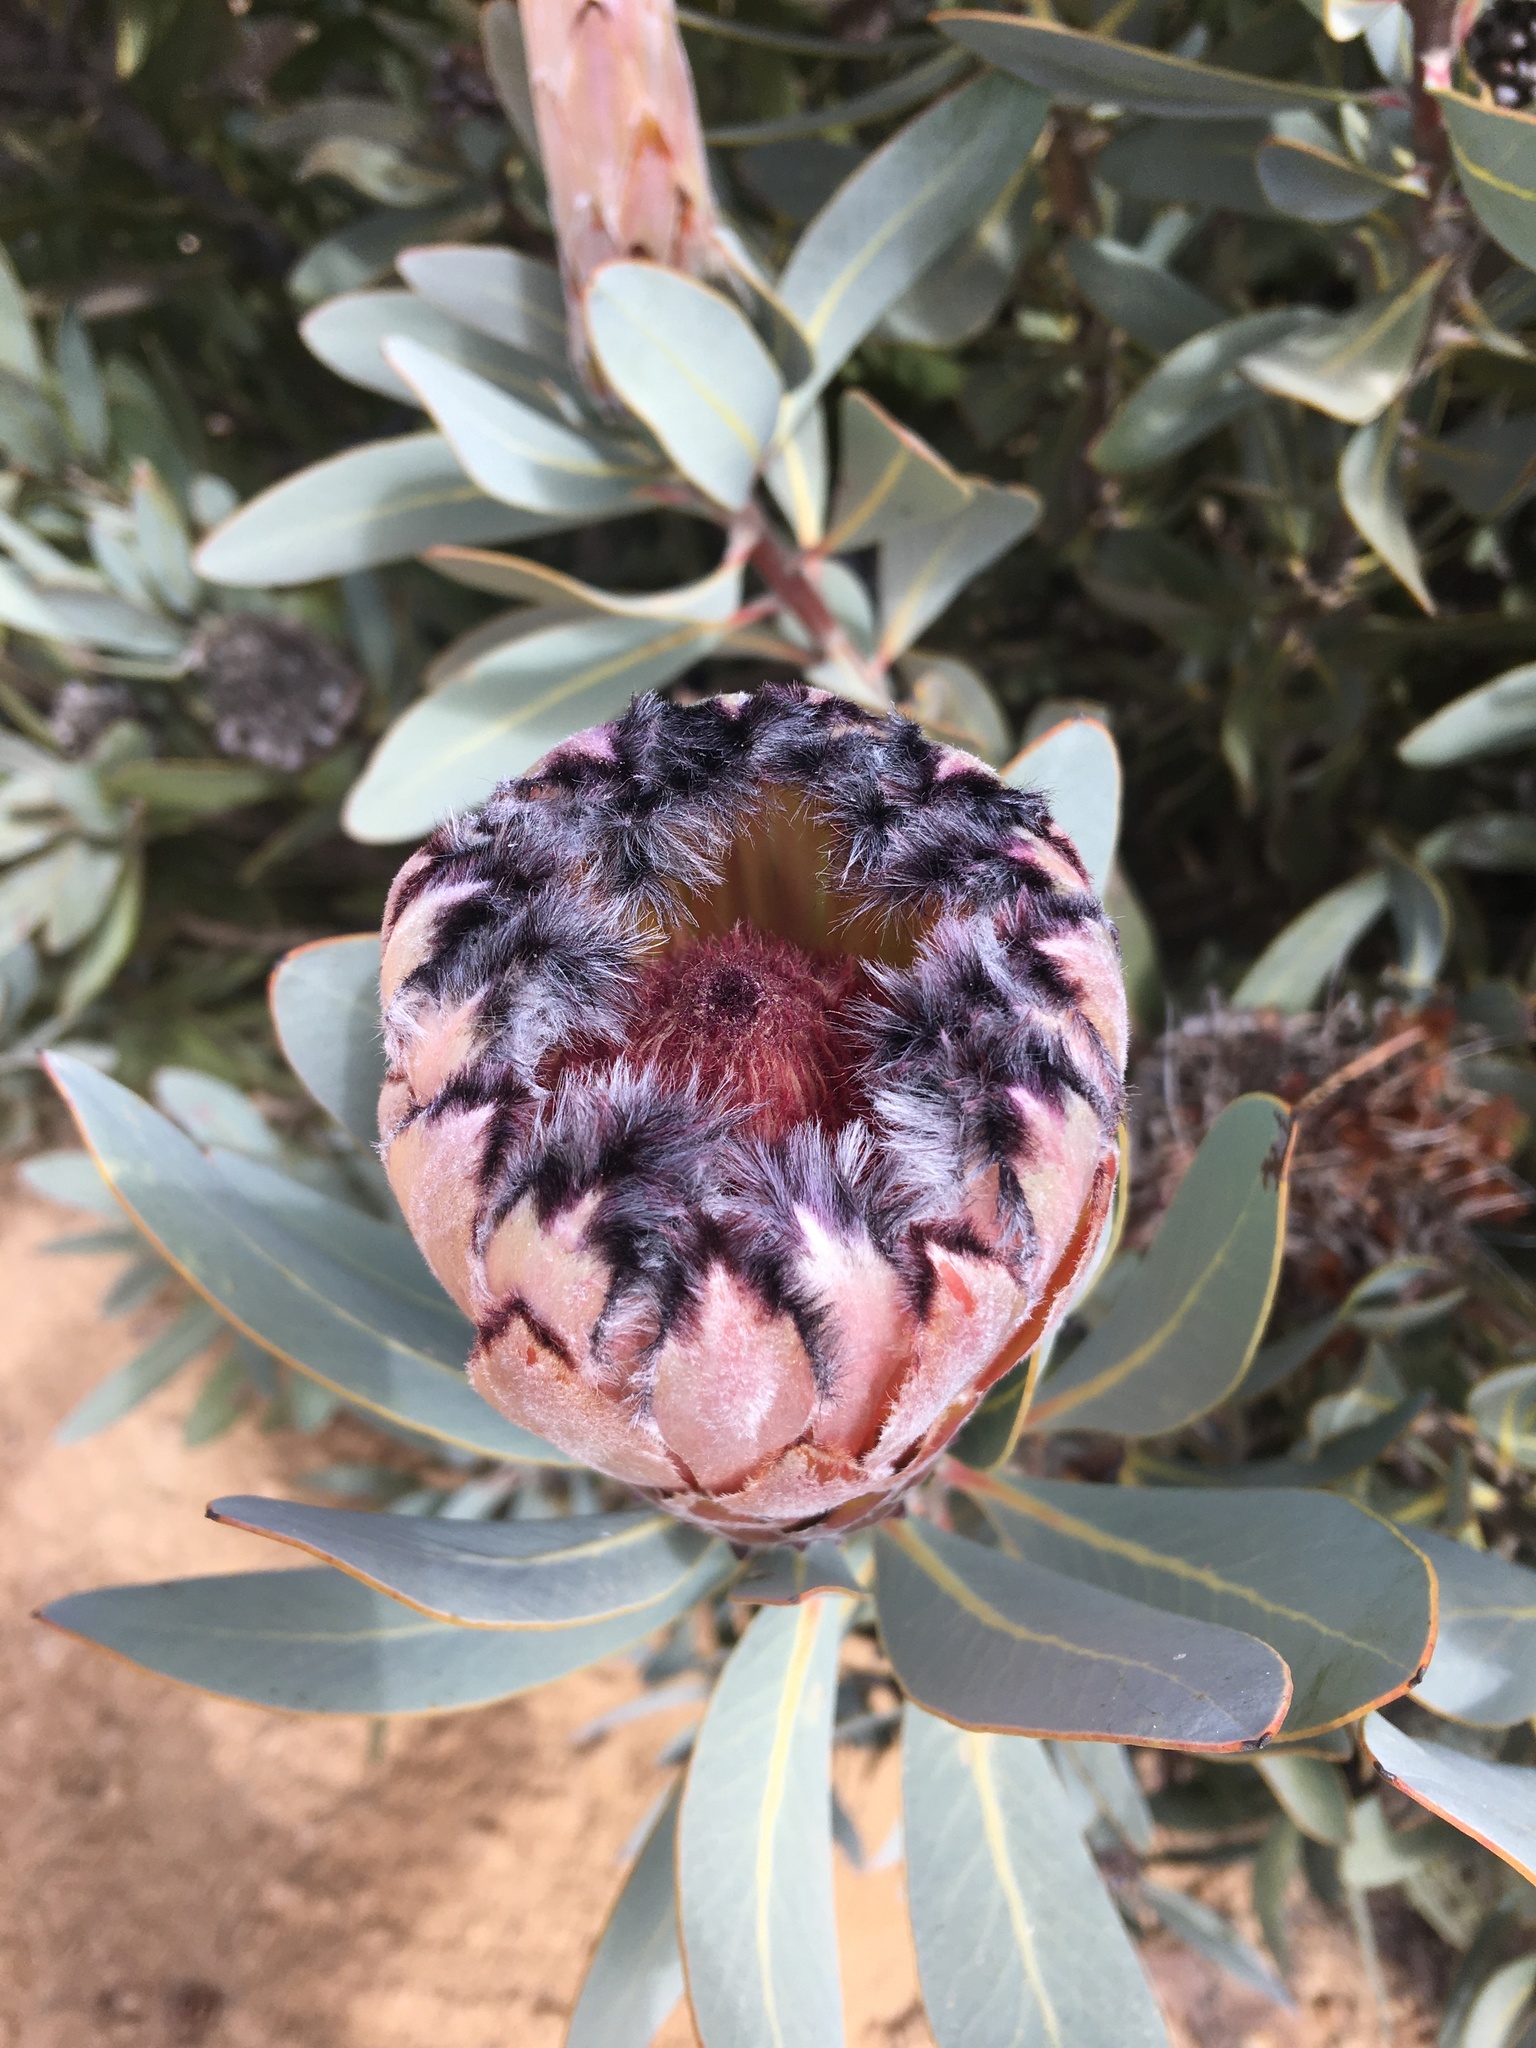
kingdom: Plantae
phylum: Tracheophyta
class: Magnoliopsida
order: Proteales
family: Proteaceae
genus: Protea
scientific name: Protea laurifolia
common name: Grey-leaf sugarbsh
